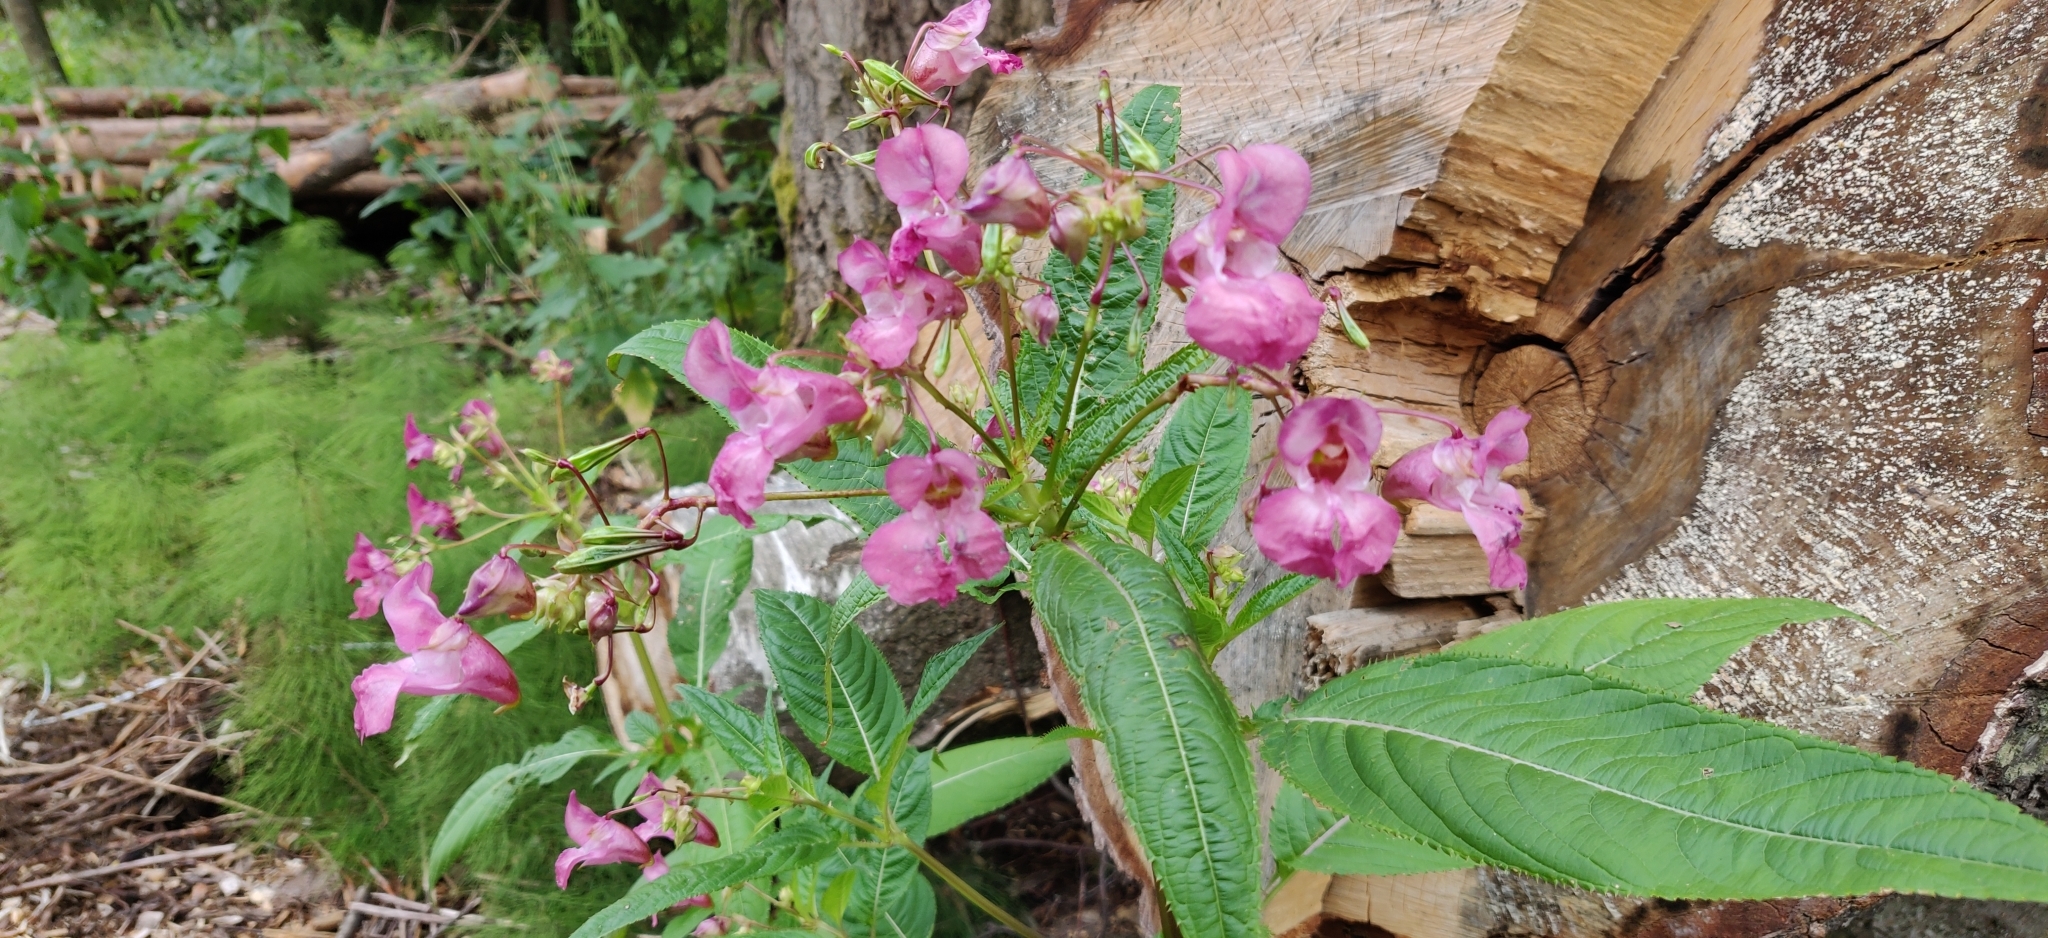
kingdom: Plantae
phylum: Tracheophyta
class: Magnoliopsida
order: Ericales
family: Balsaminaceae
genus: Impatiens
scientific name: Impatiens glandulifera
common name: Himalayan balsam
